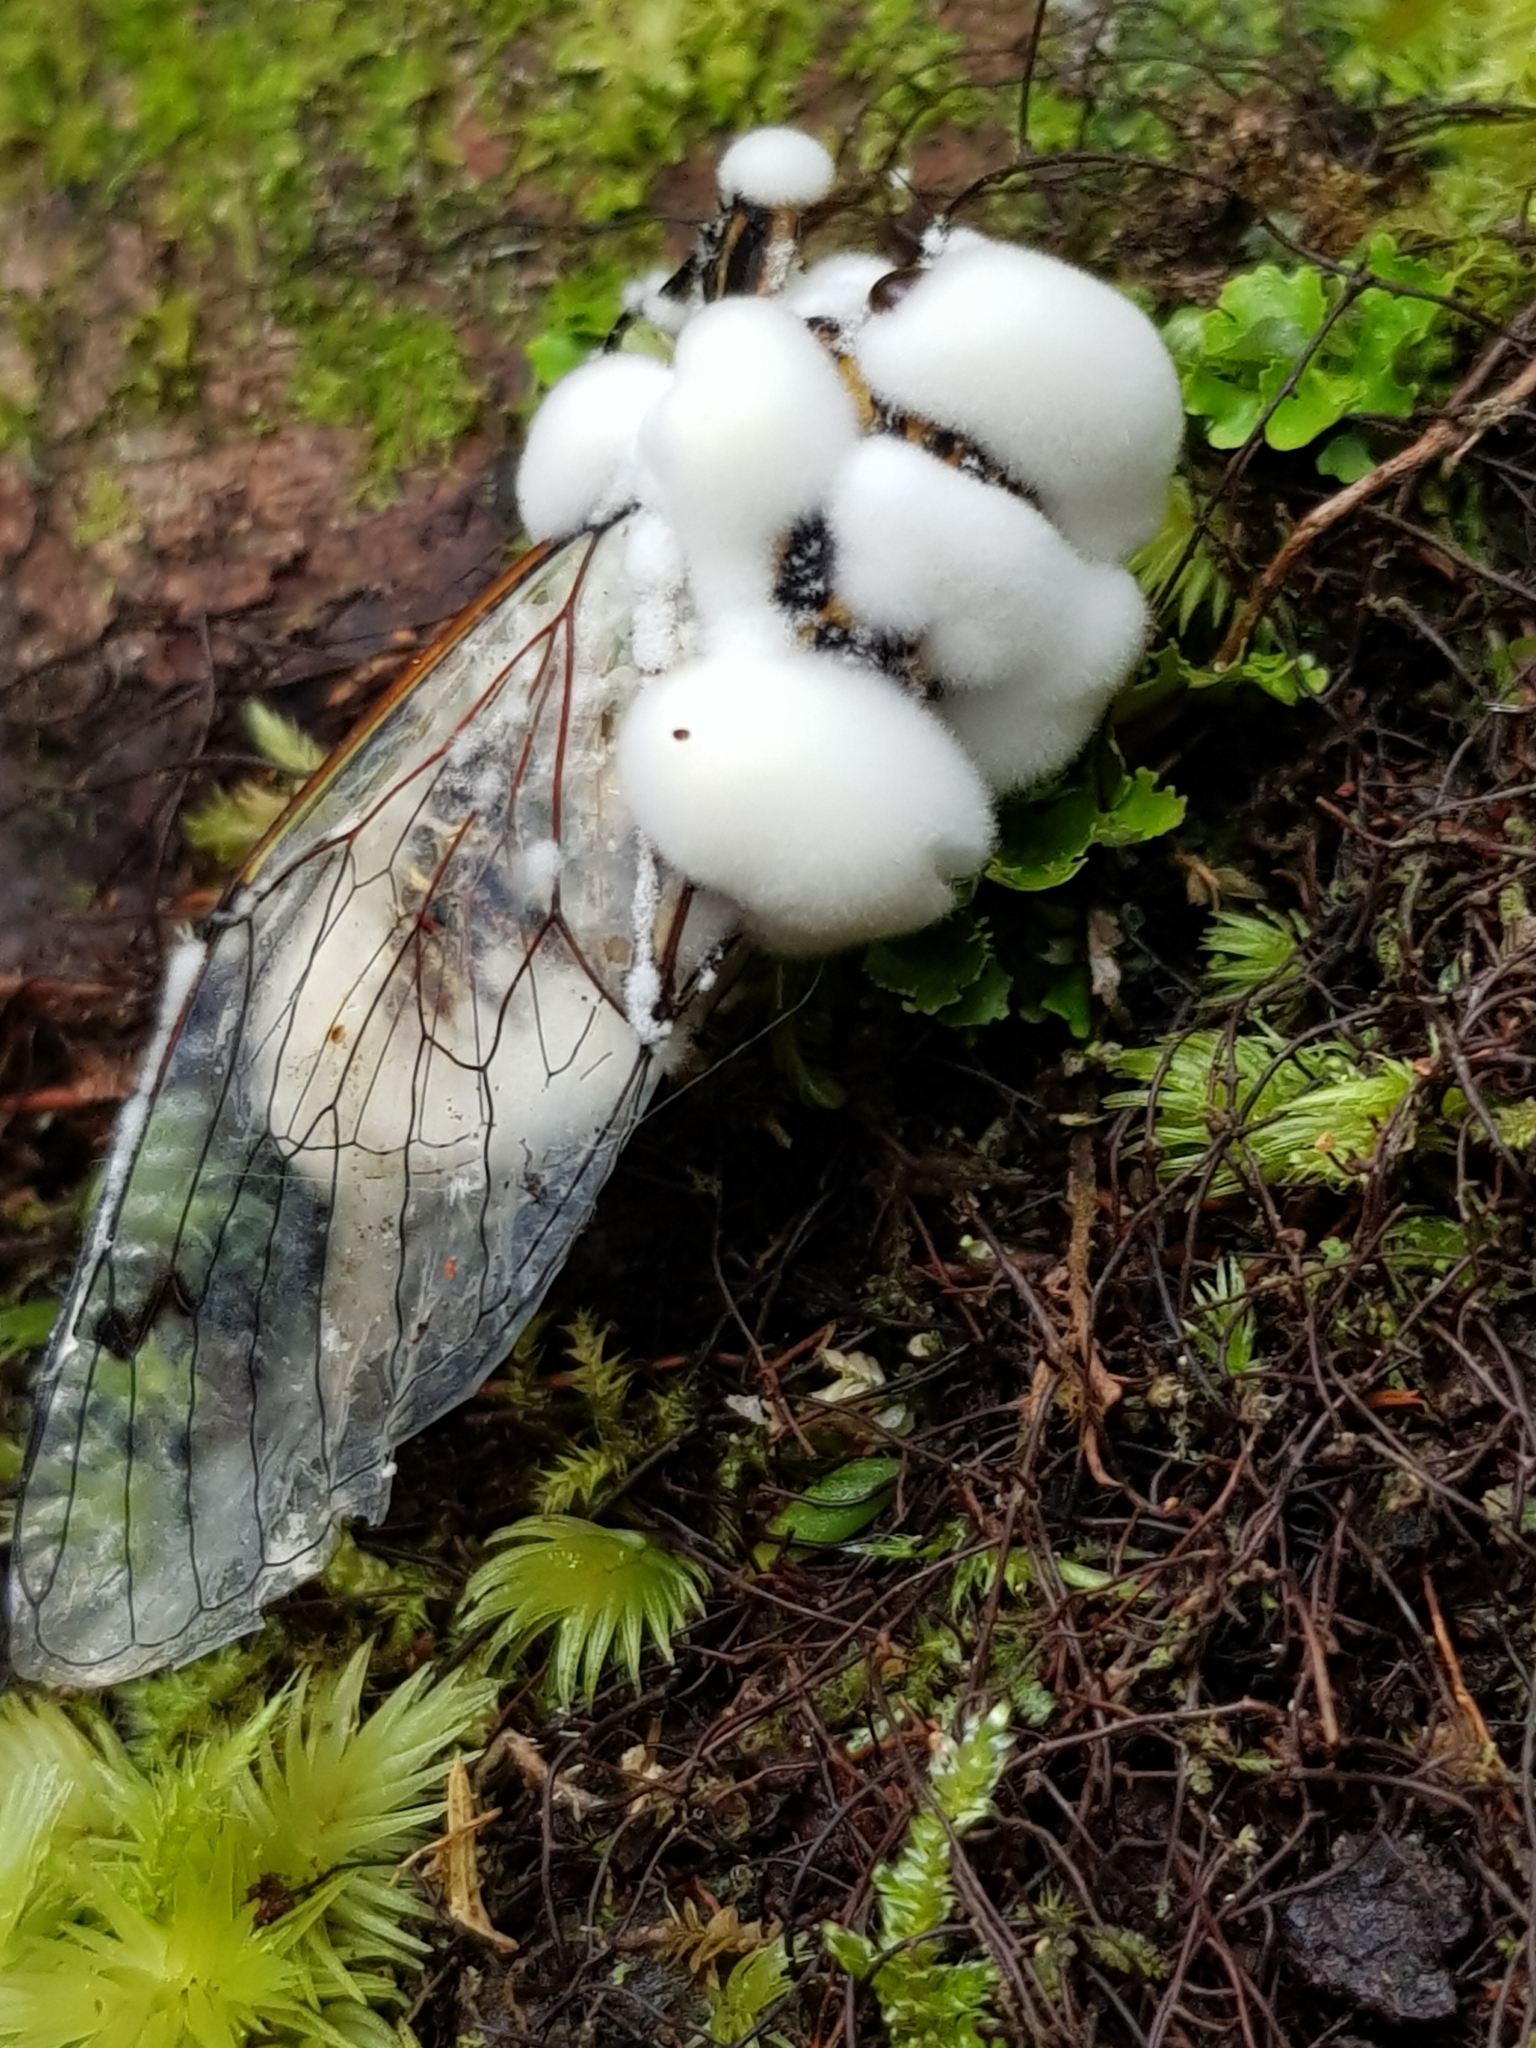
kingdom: Fungi
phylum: Ascomycota
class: Sordariomycetes
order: Hypocreales
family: Cordycipitaceae
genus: Beauveria
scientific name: Beauveria bassiana
